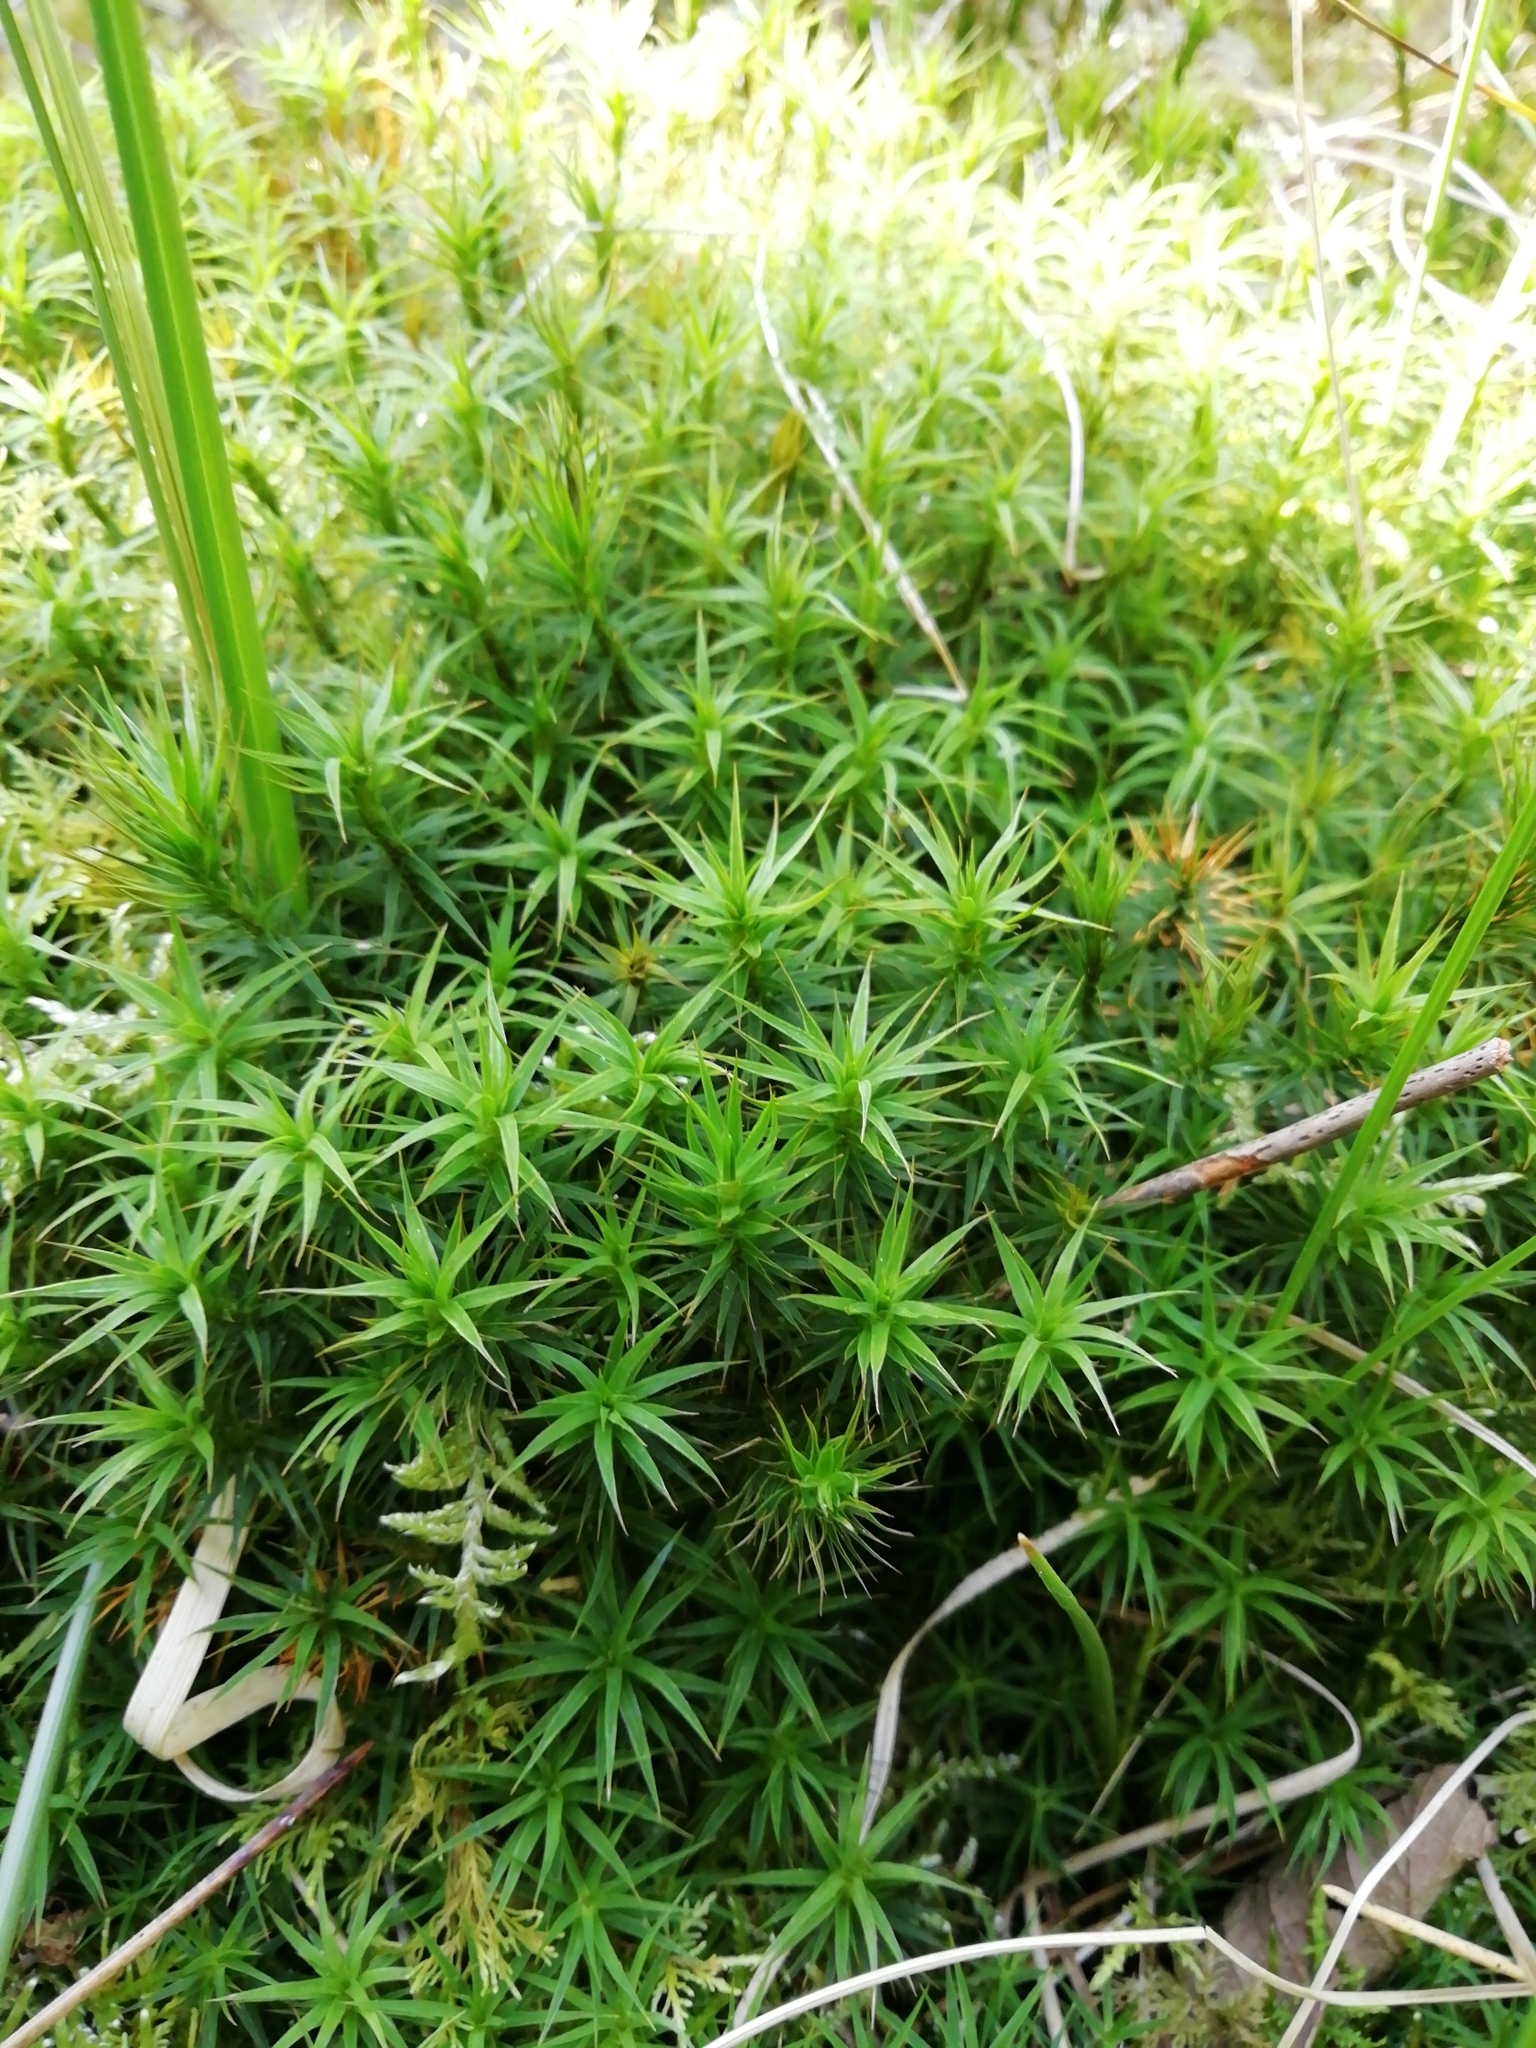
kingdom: Plantae
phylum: Bryophyta
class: Polytrichopsida
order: Polytrichales
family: Polytrichaceae
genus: Polytrichum
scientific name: Polytrichum formosum
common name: Bank haircap moss
